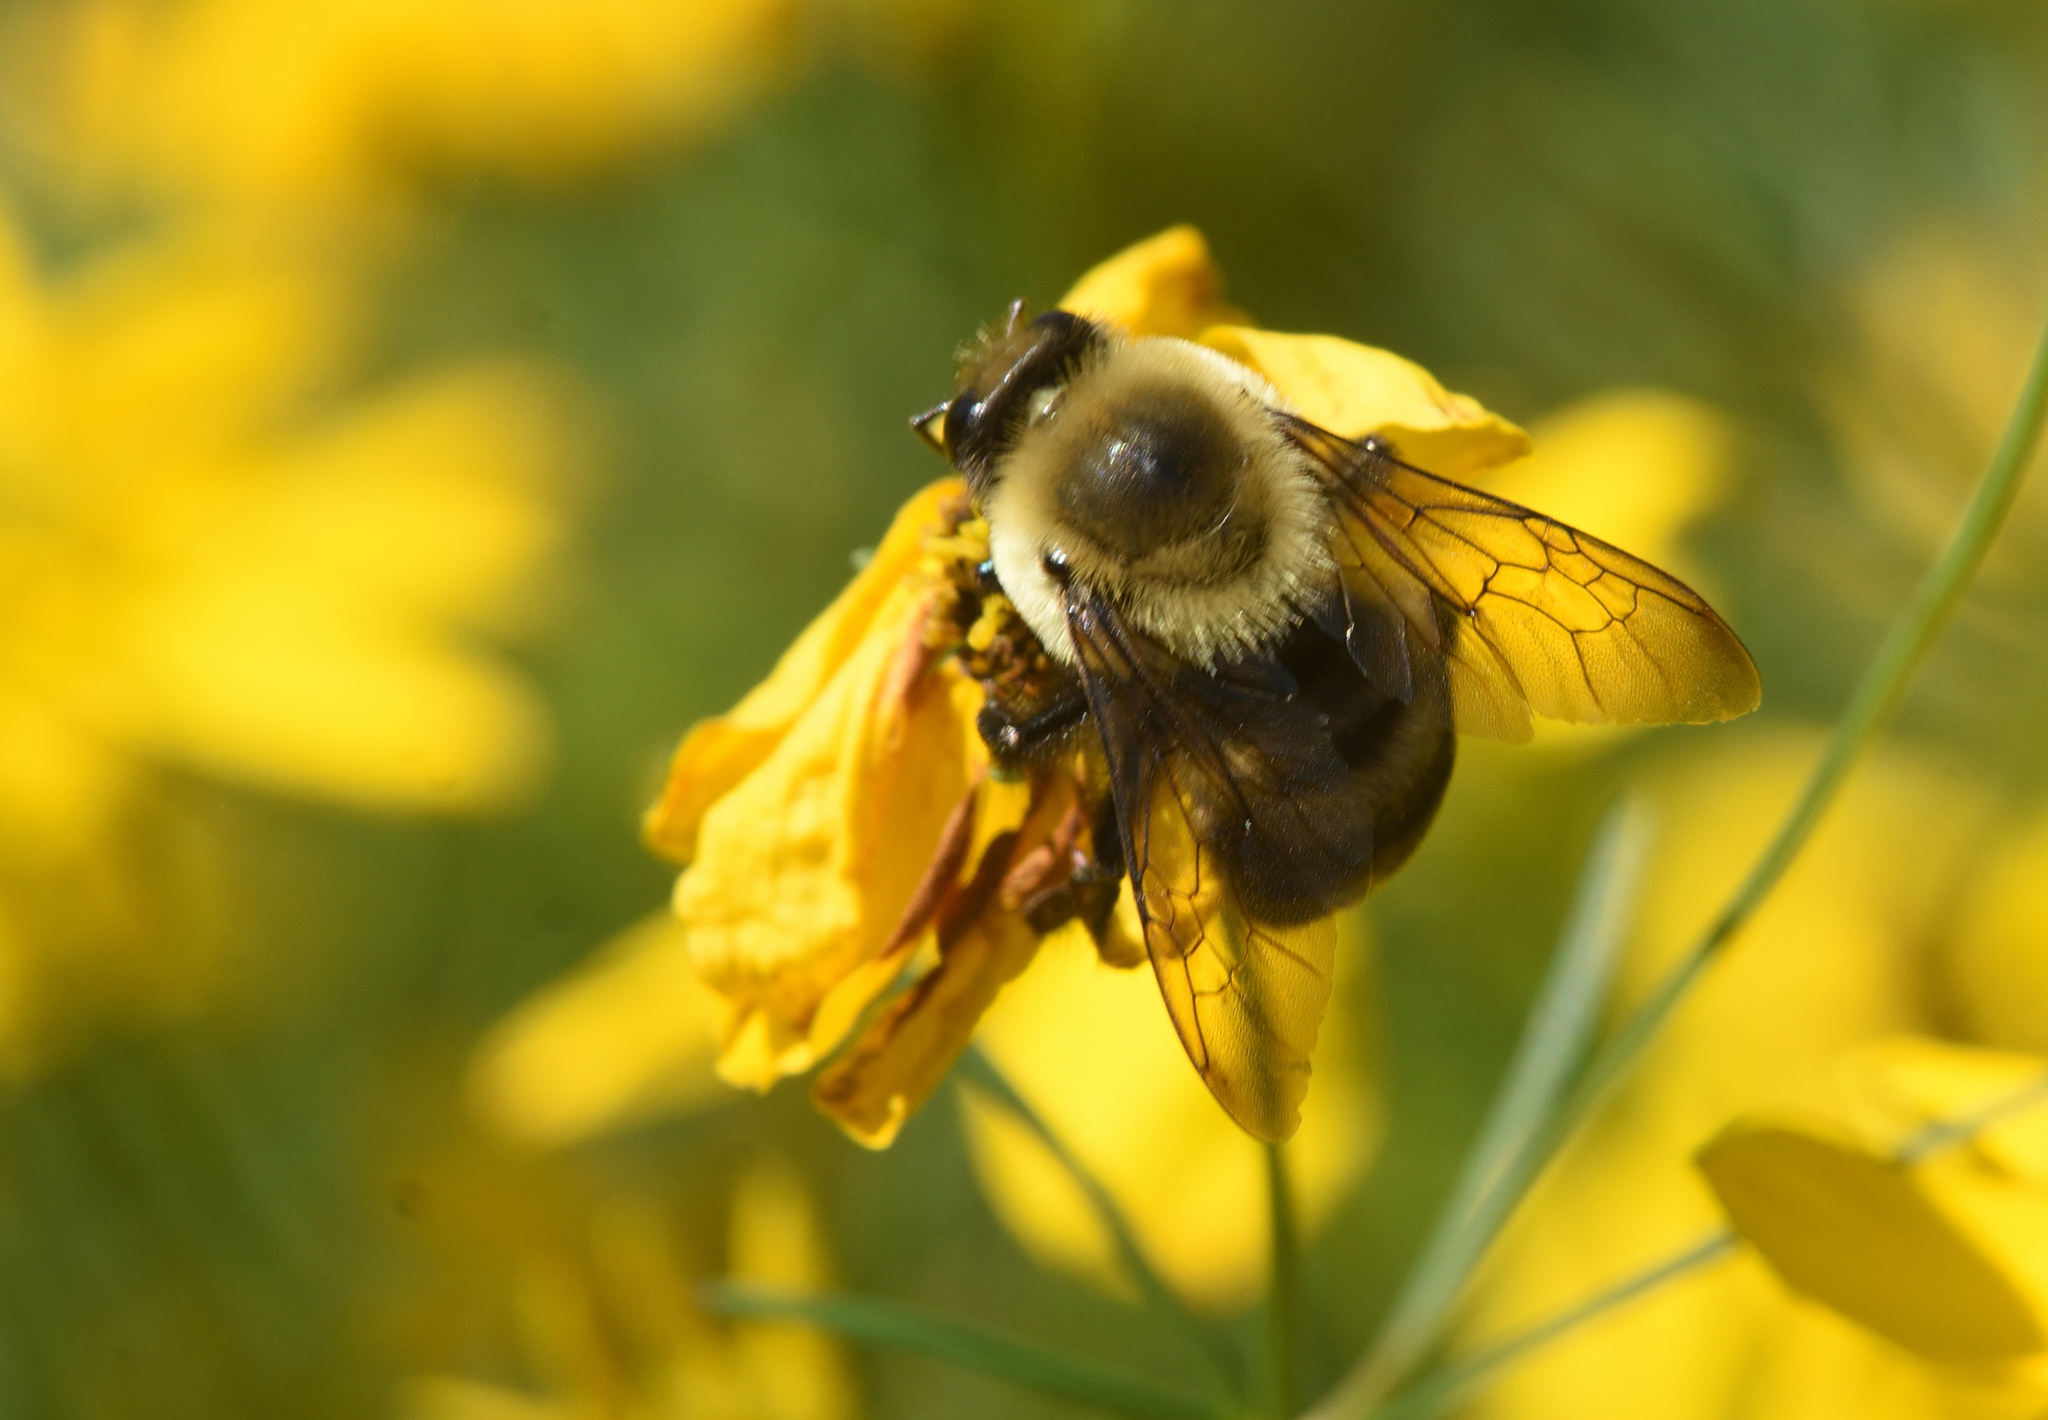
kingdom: Animalia
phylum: Arthropoda
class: Insecta
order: Hymenoptera
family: Apidae
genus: Bombus
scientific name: Bombus griseocollis
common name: Brown-belted bumble bee
